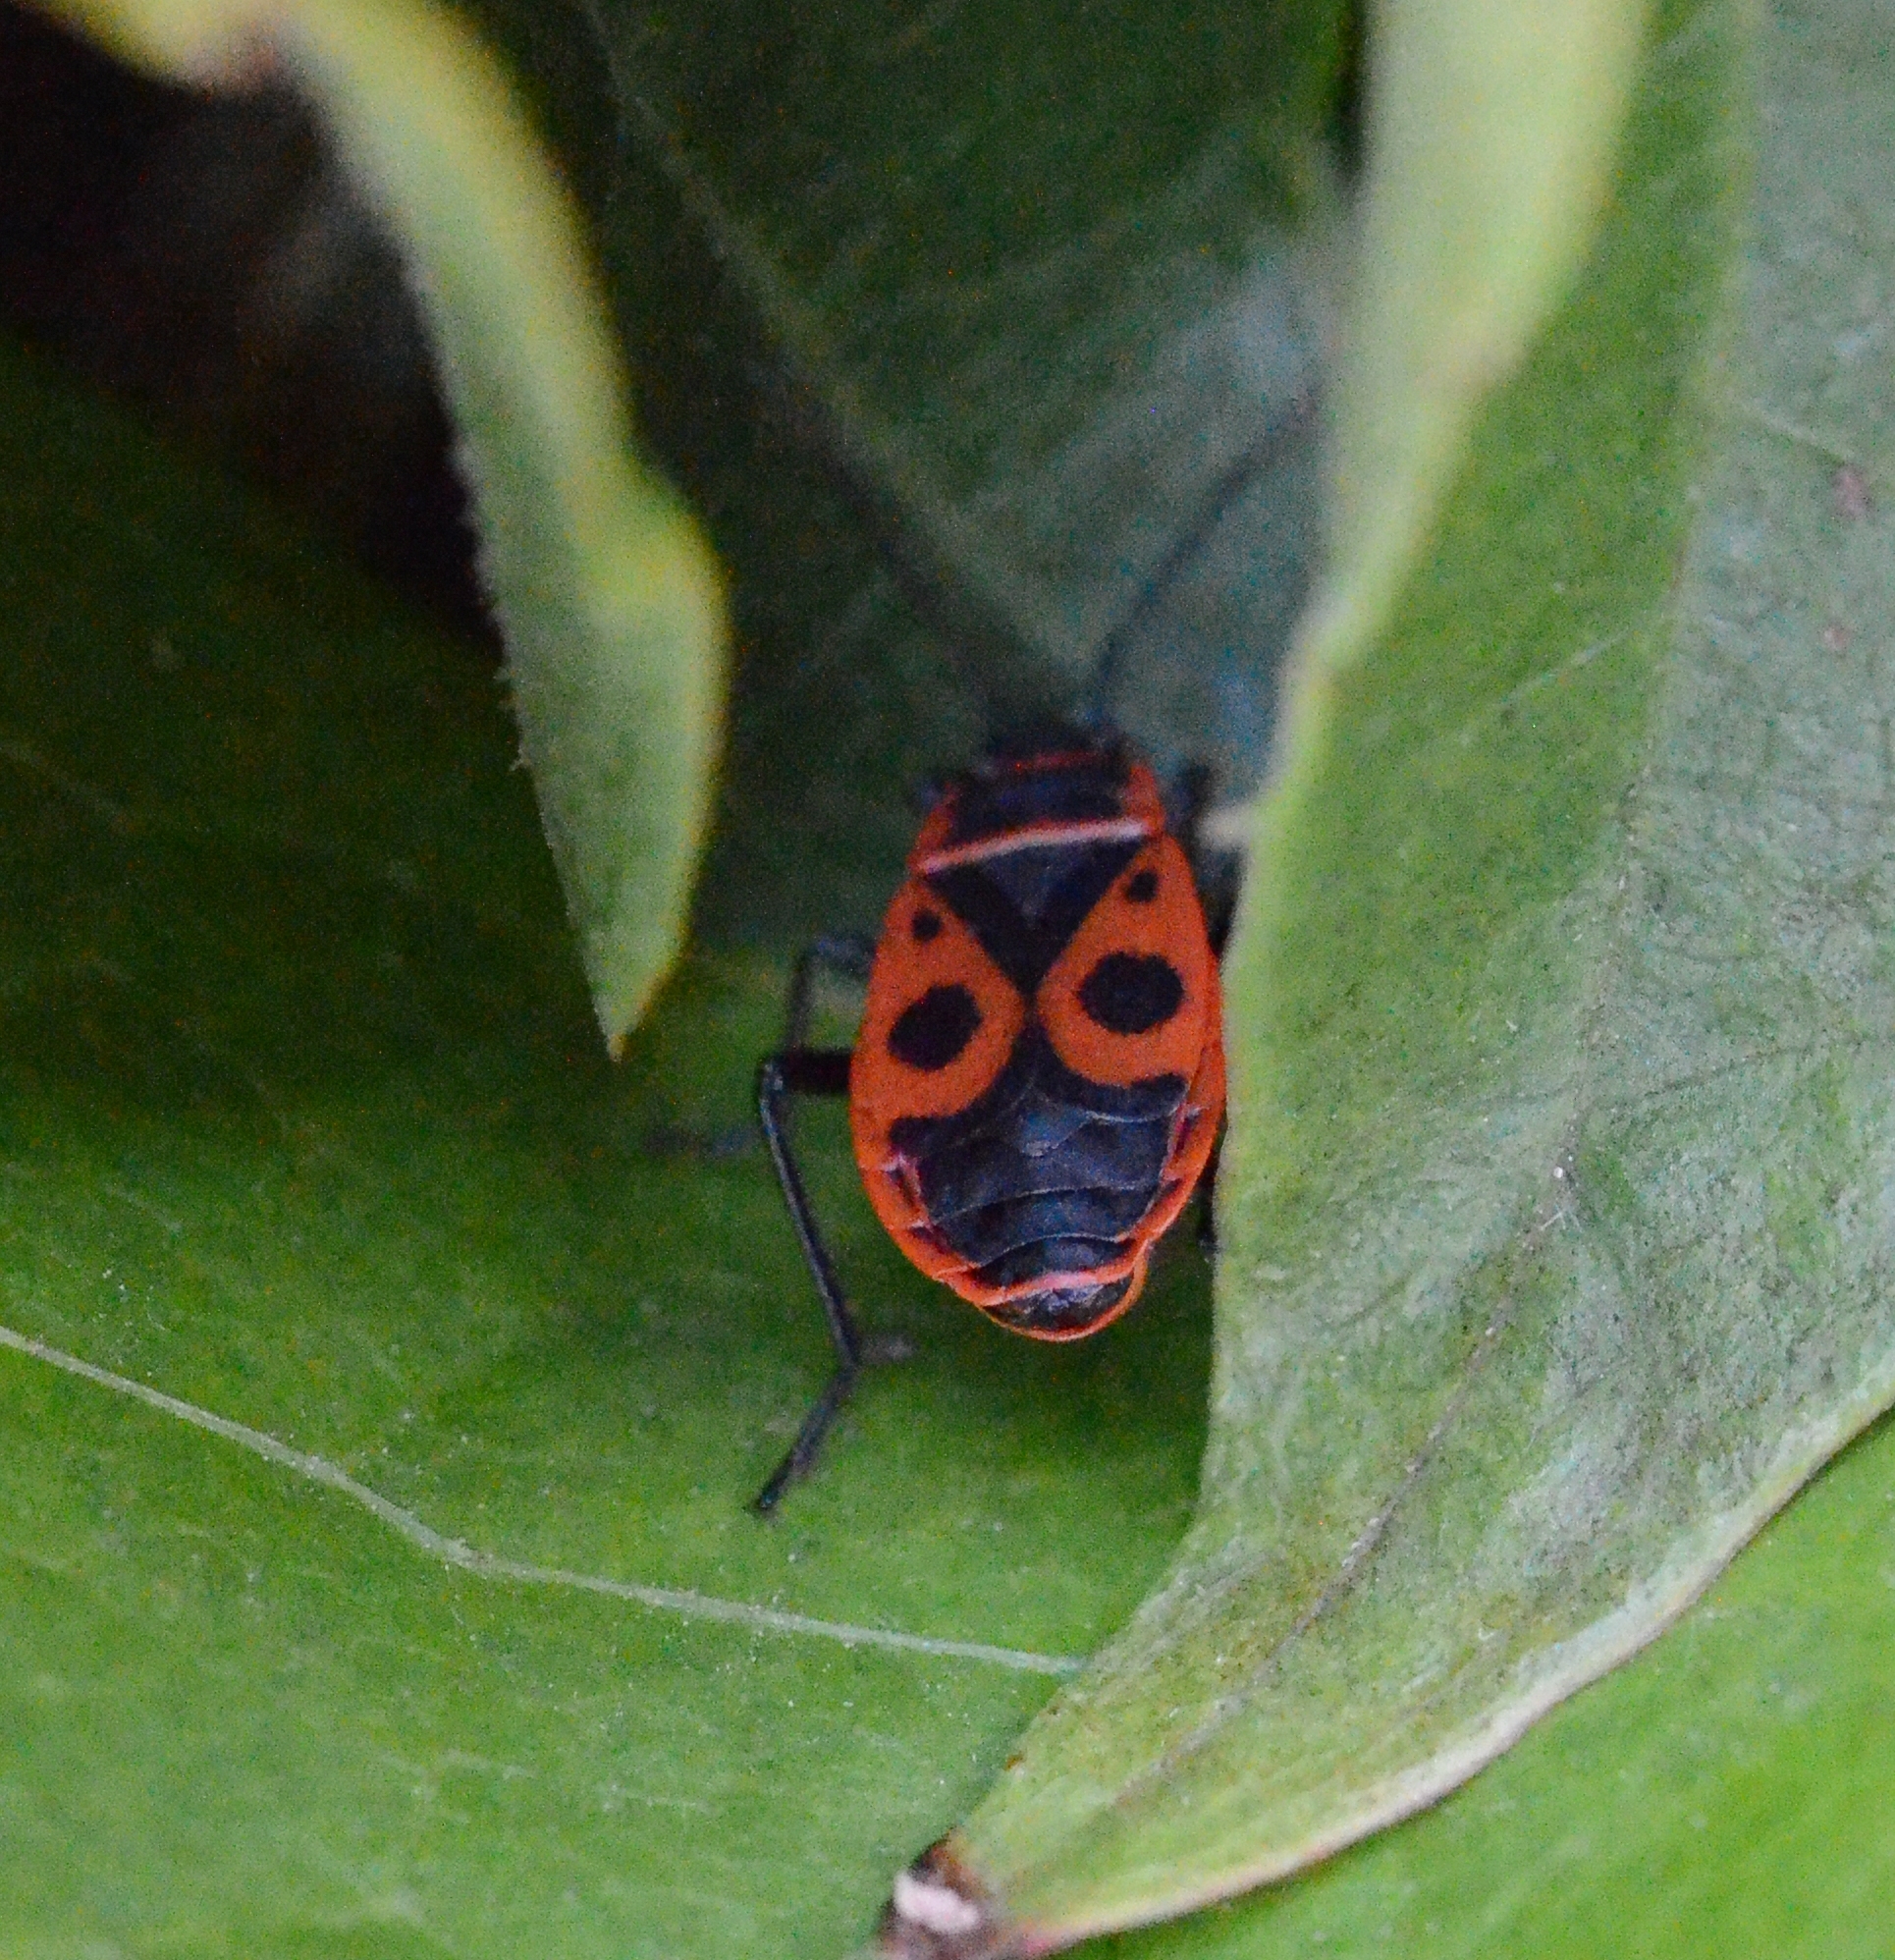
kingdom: Animalia
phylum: Arthropoda
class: Insecta
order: Hemiptera
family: Pyrrhocoridae
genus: Pyrrhocoris
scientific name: Pyrrhocoris apterus
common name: Firebug
